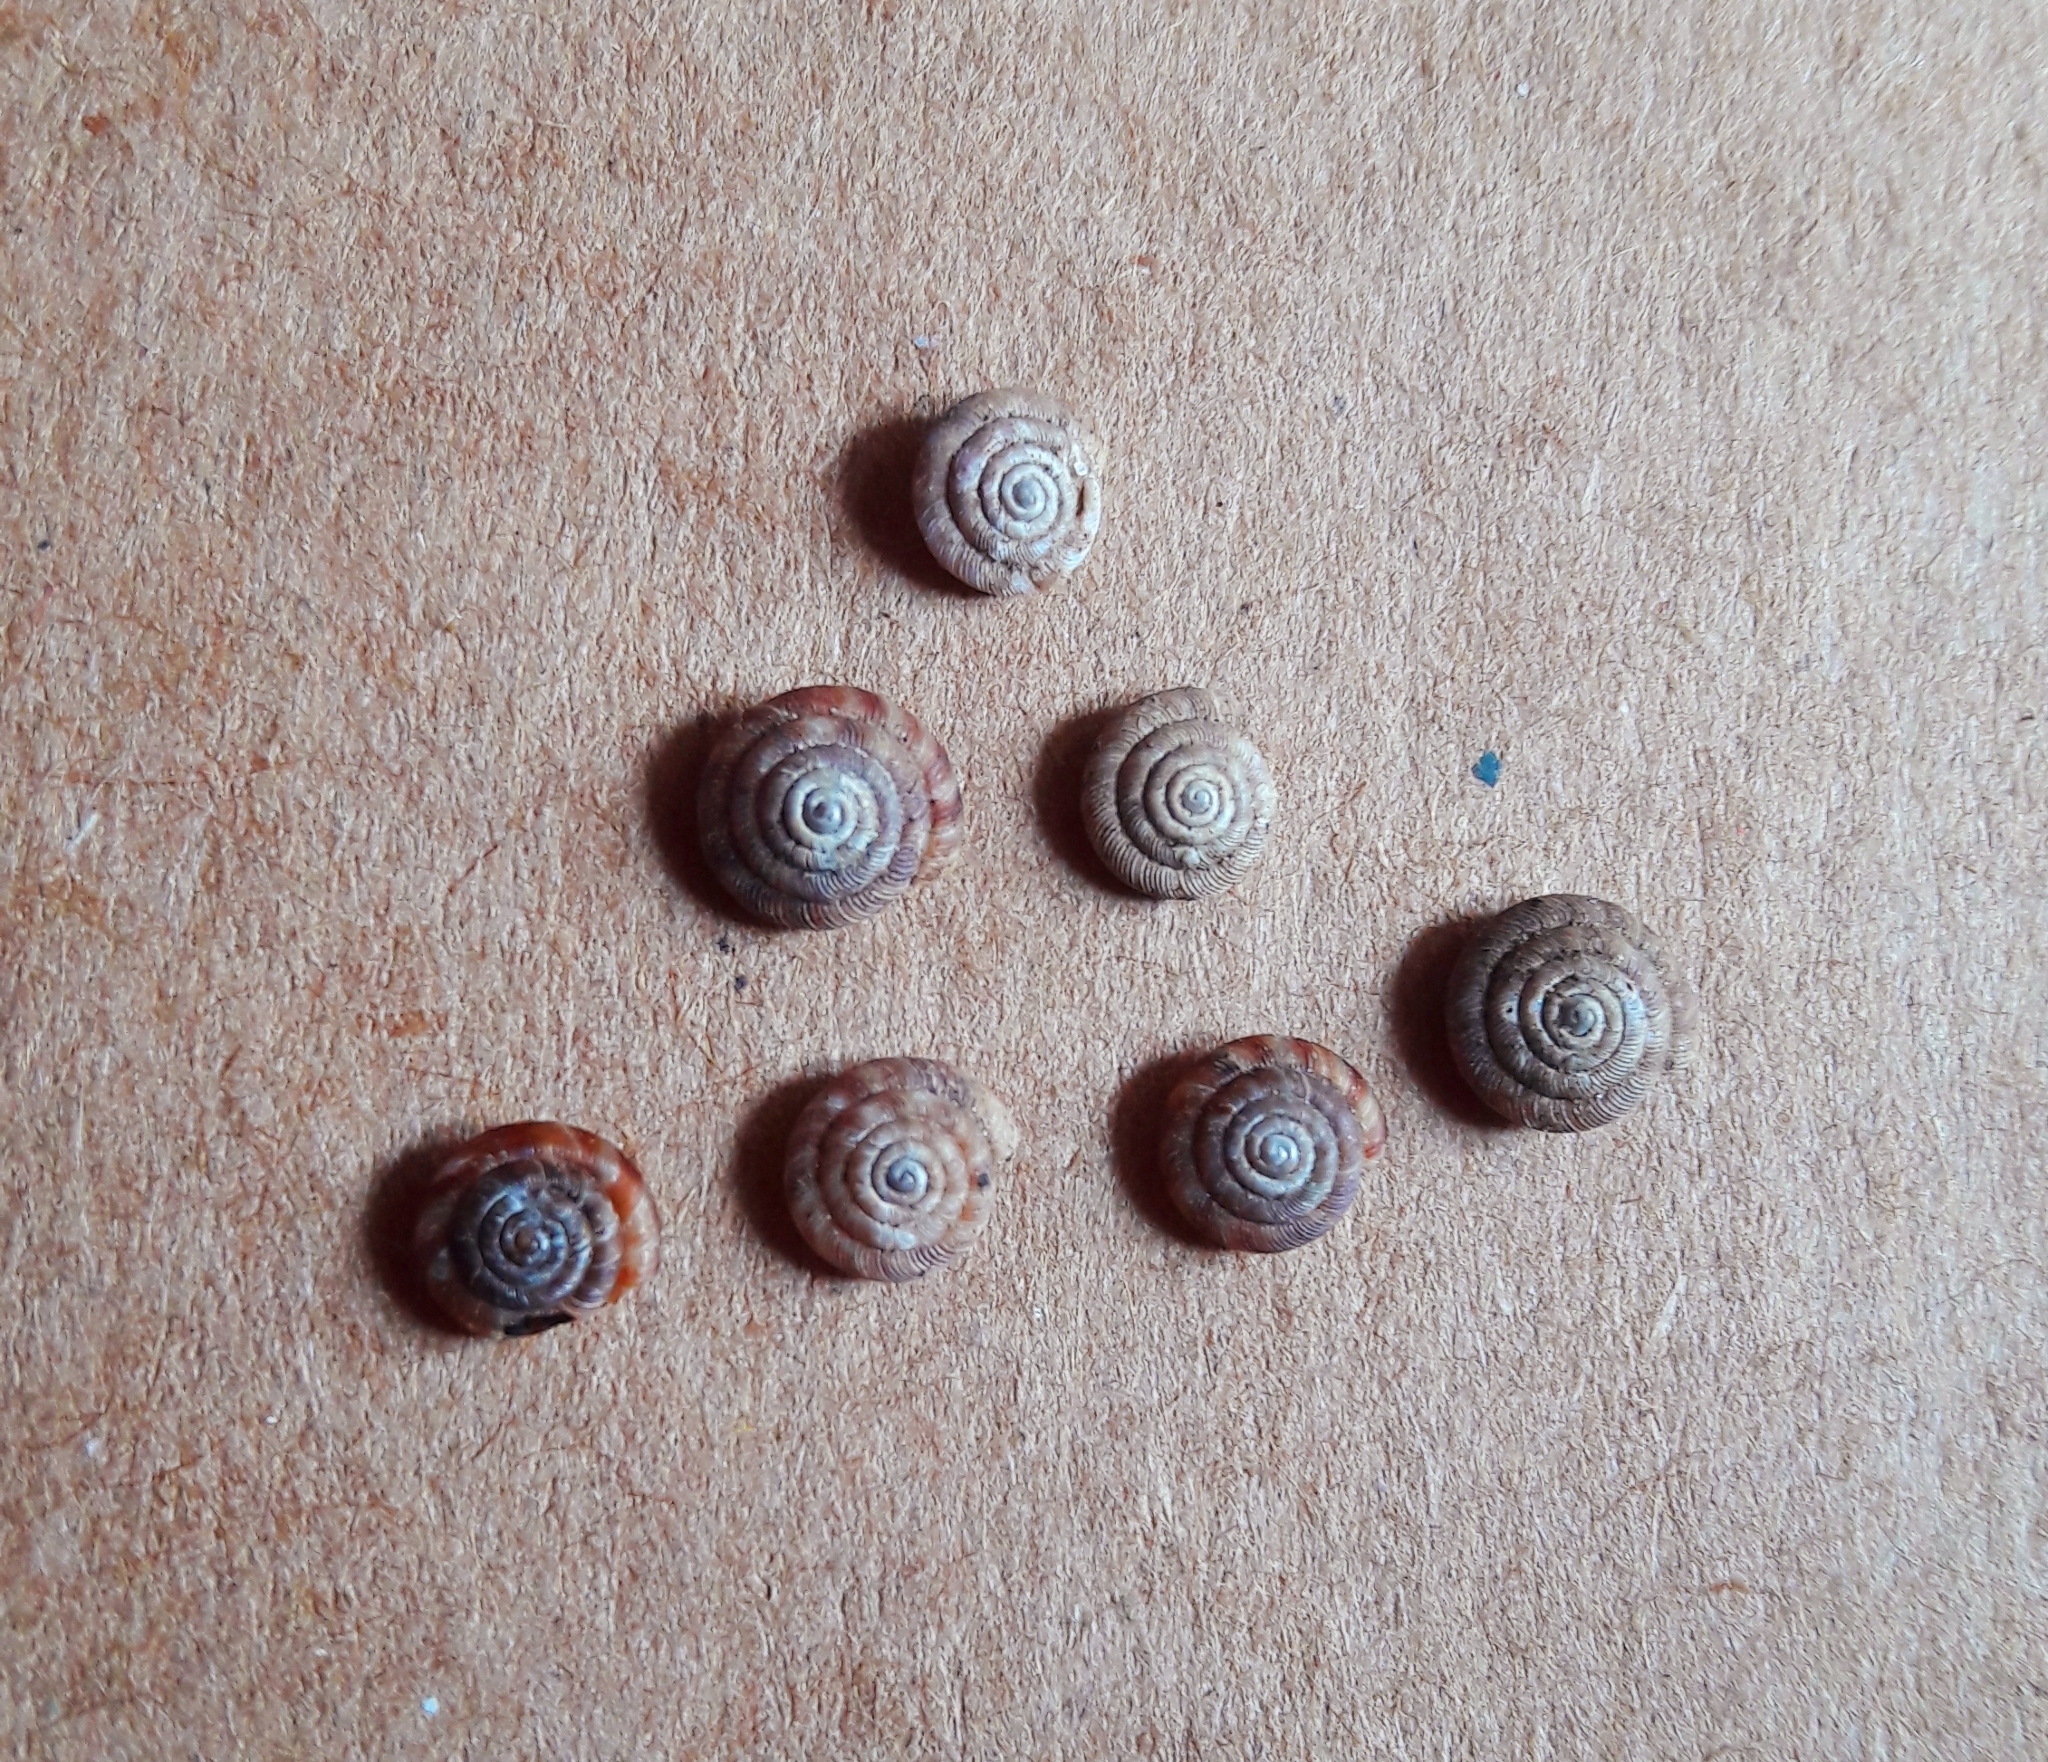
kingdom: Animalia
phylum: Mollusca
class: Gastropoda
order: Stylommatophora
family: Discidae
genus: Discus
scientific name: Discus rotundatus
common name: Rounded snail
